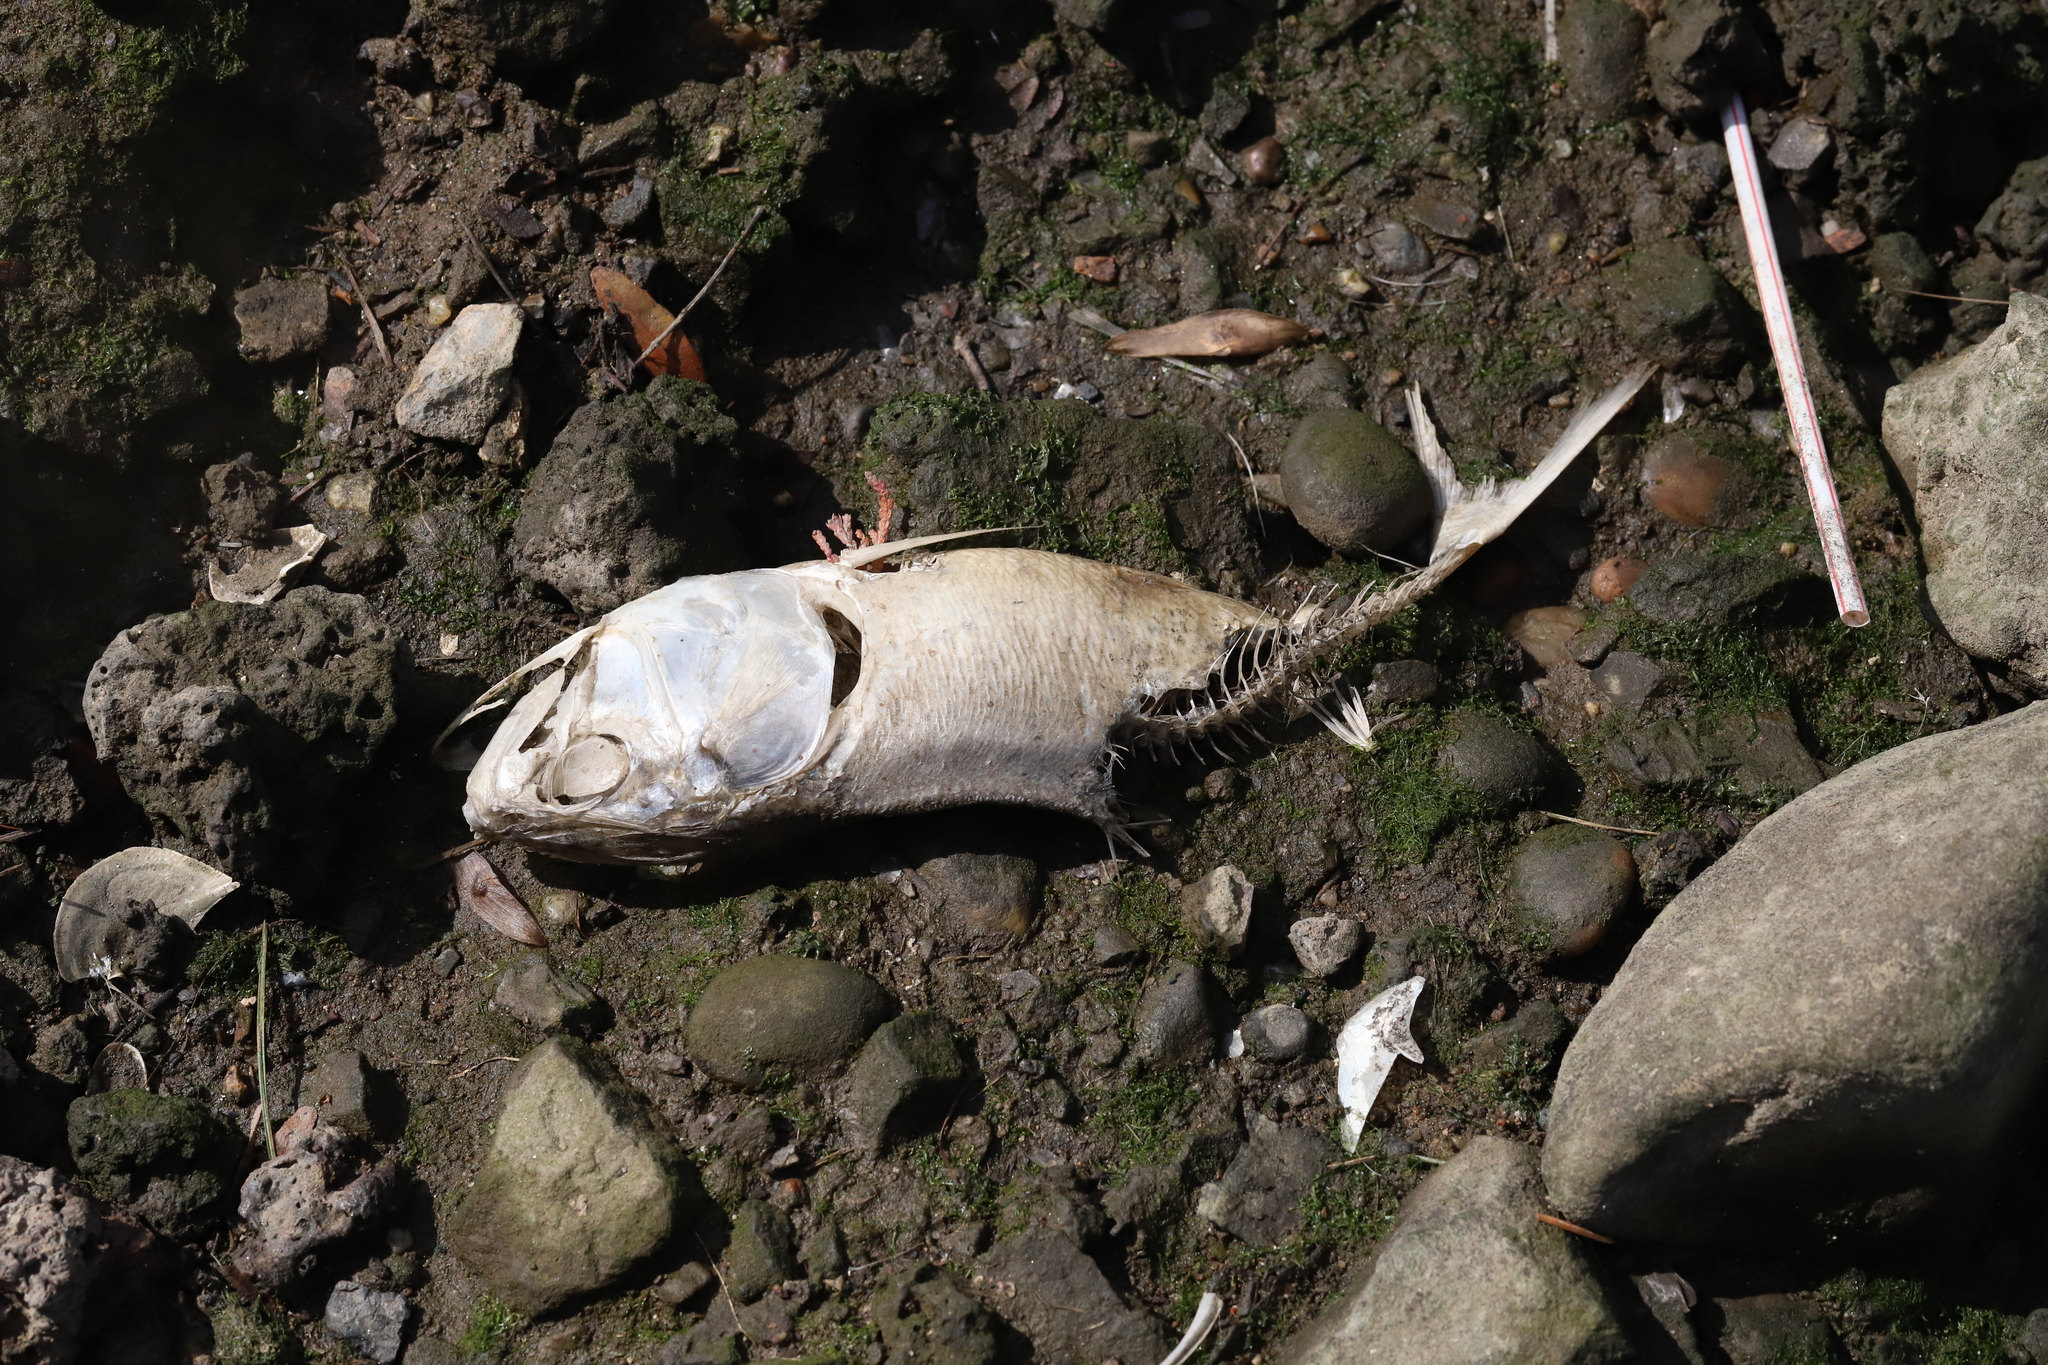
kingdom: Animalia
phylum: Chordata
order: Clupeiformes
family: Clupeidae
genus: Brevoortia
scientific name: Brevoortia tyrannus
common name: Atlantic menhaden
